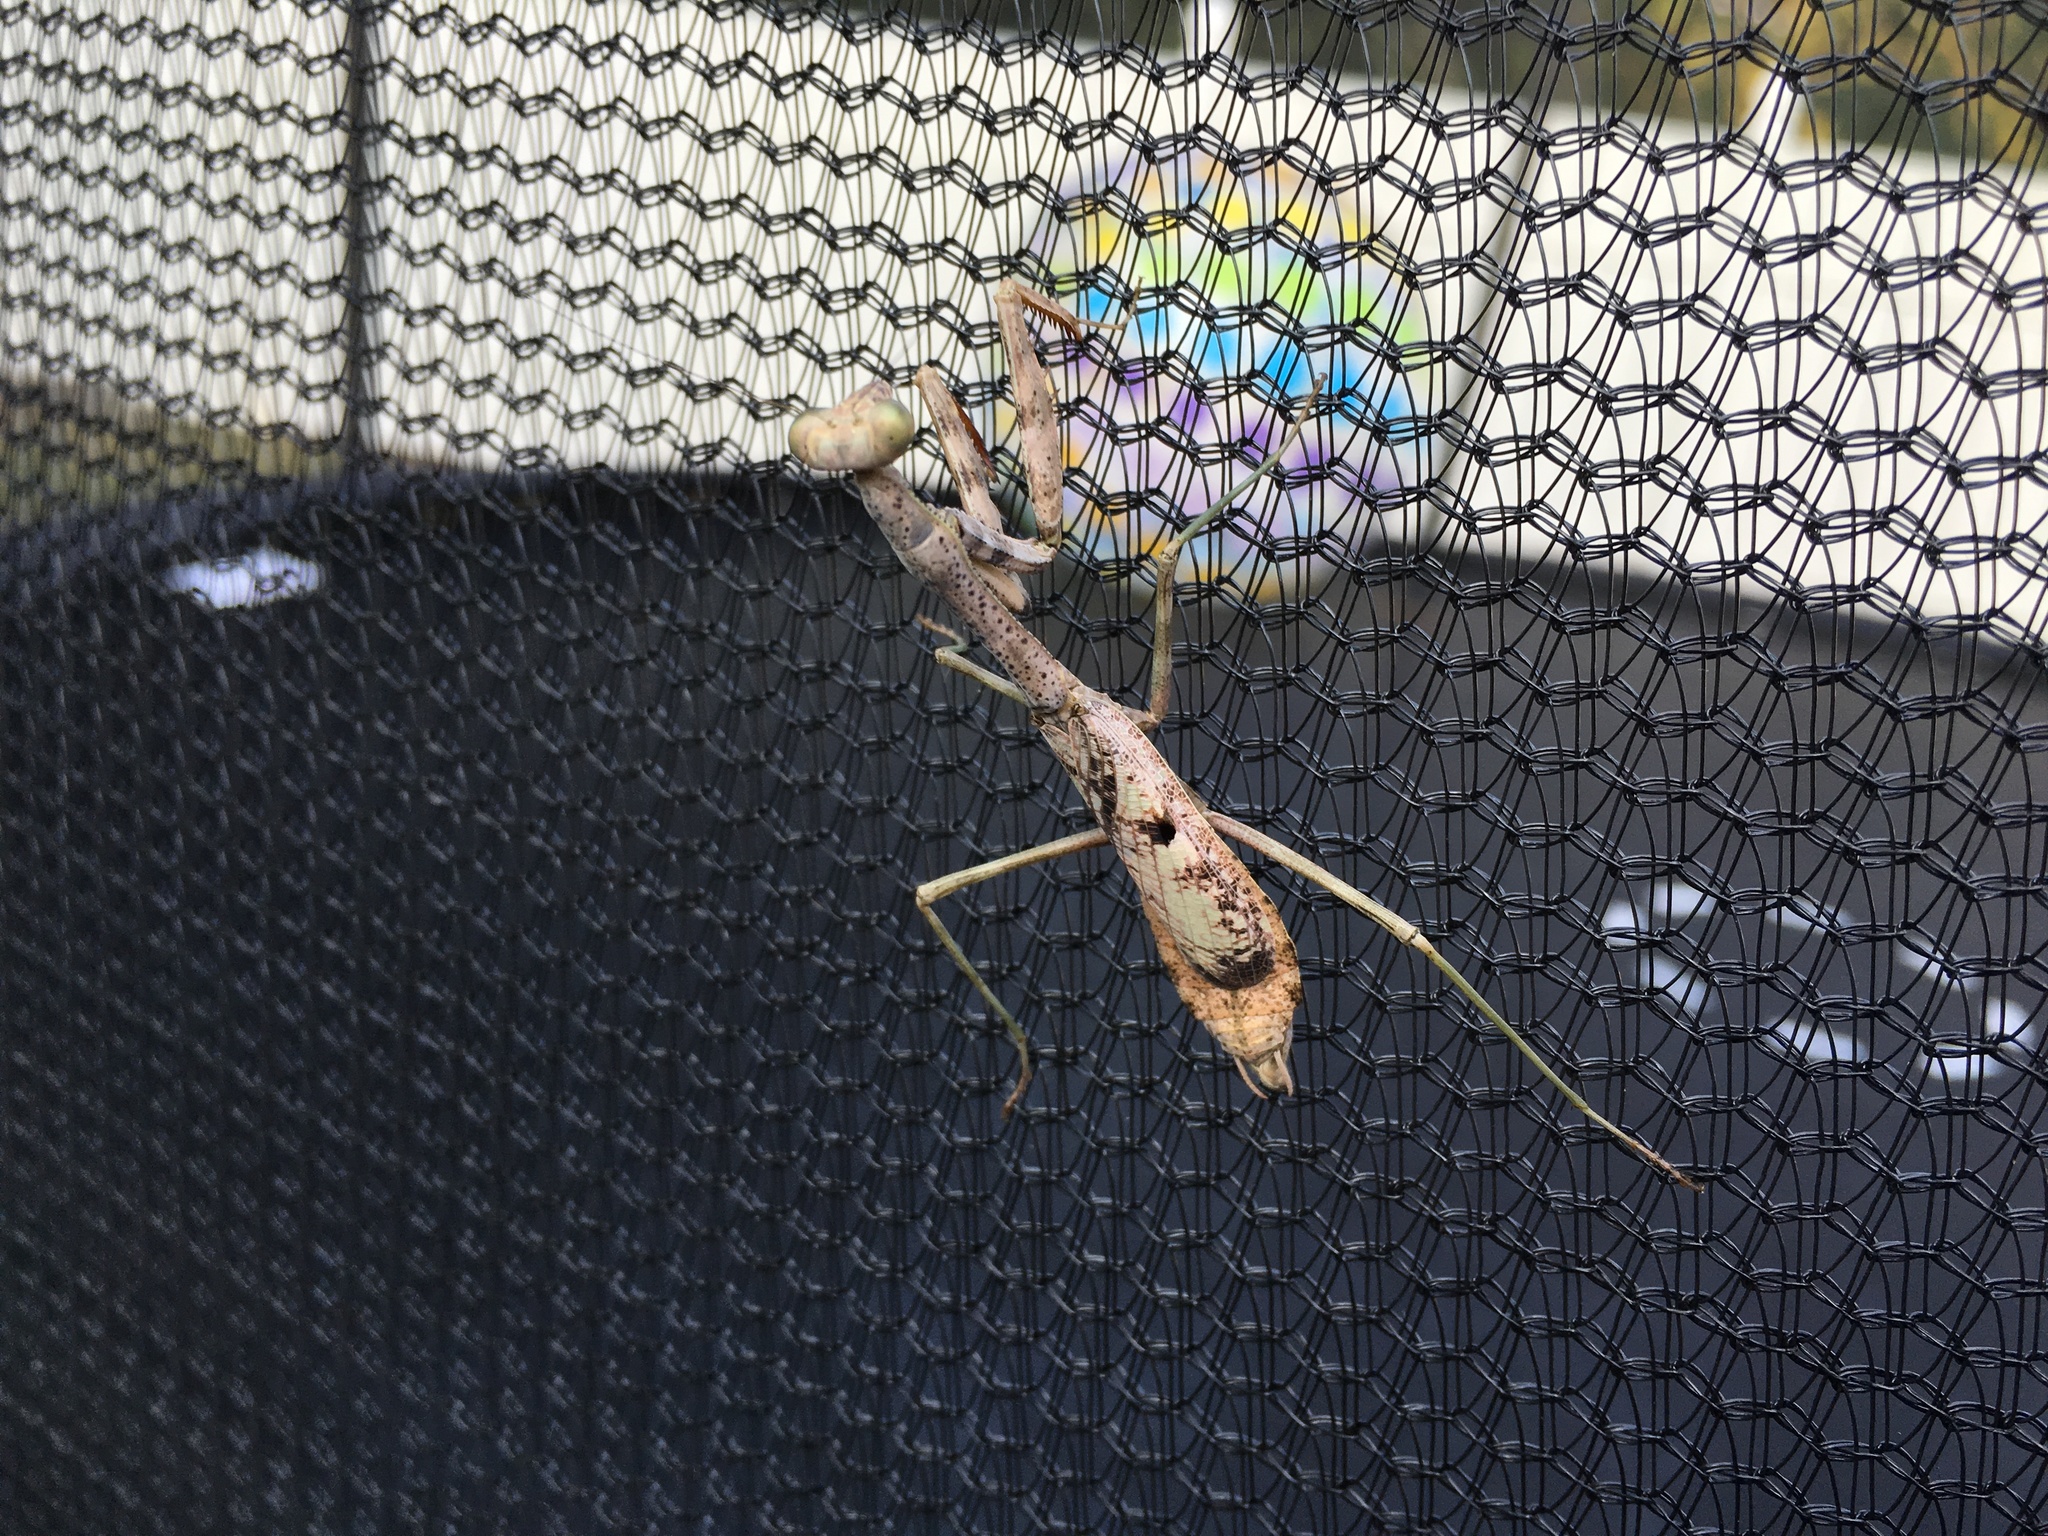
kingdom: Animalia
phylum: Arthropoda
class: Insecta
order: Mantodea
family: Mantidae
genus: Stagmomantis
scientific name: Stagmomantis carolina
